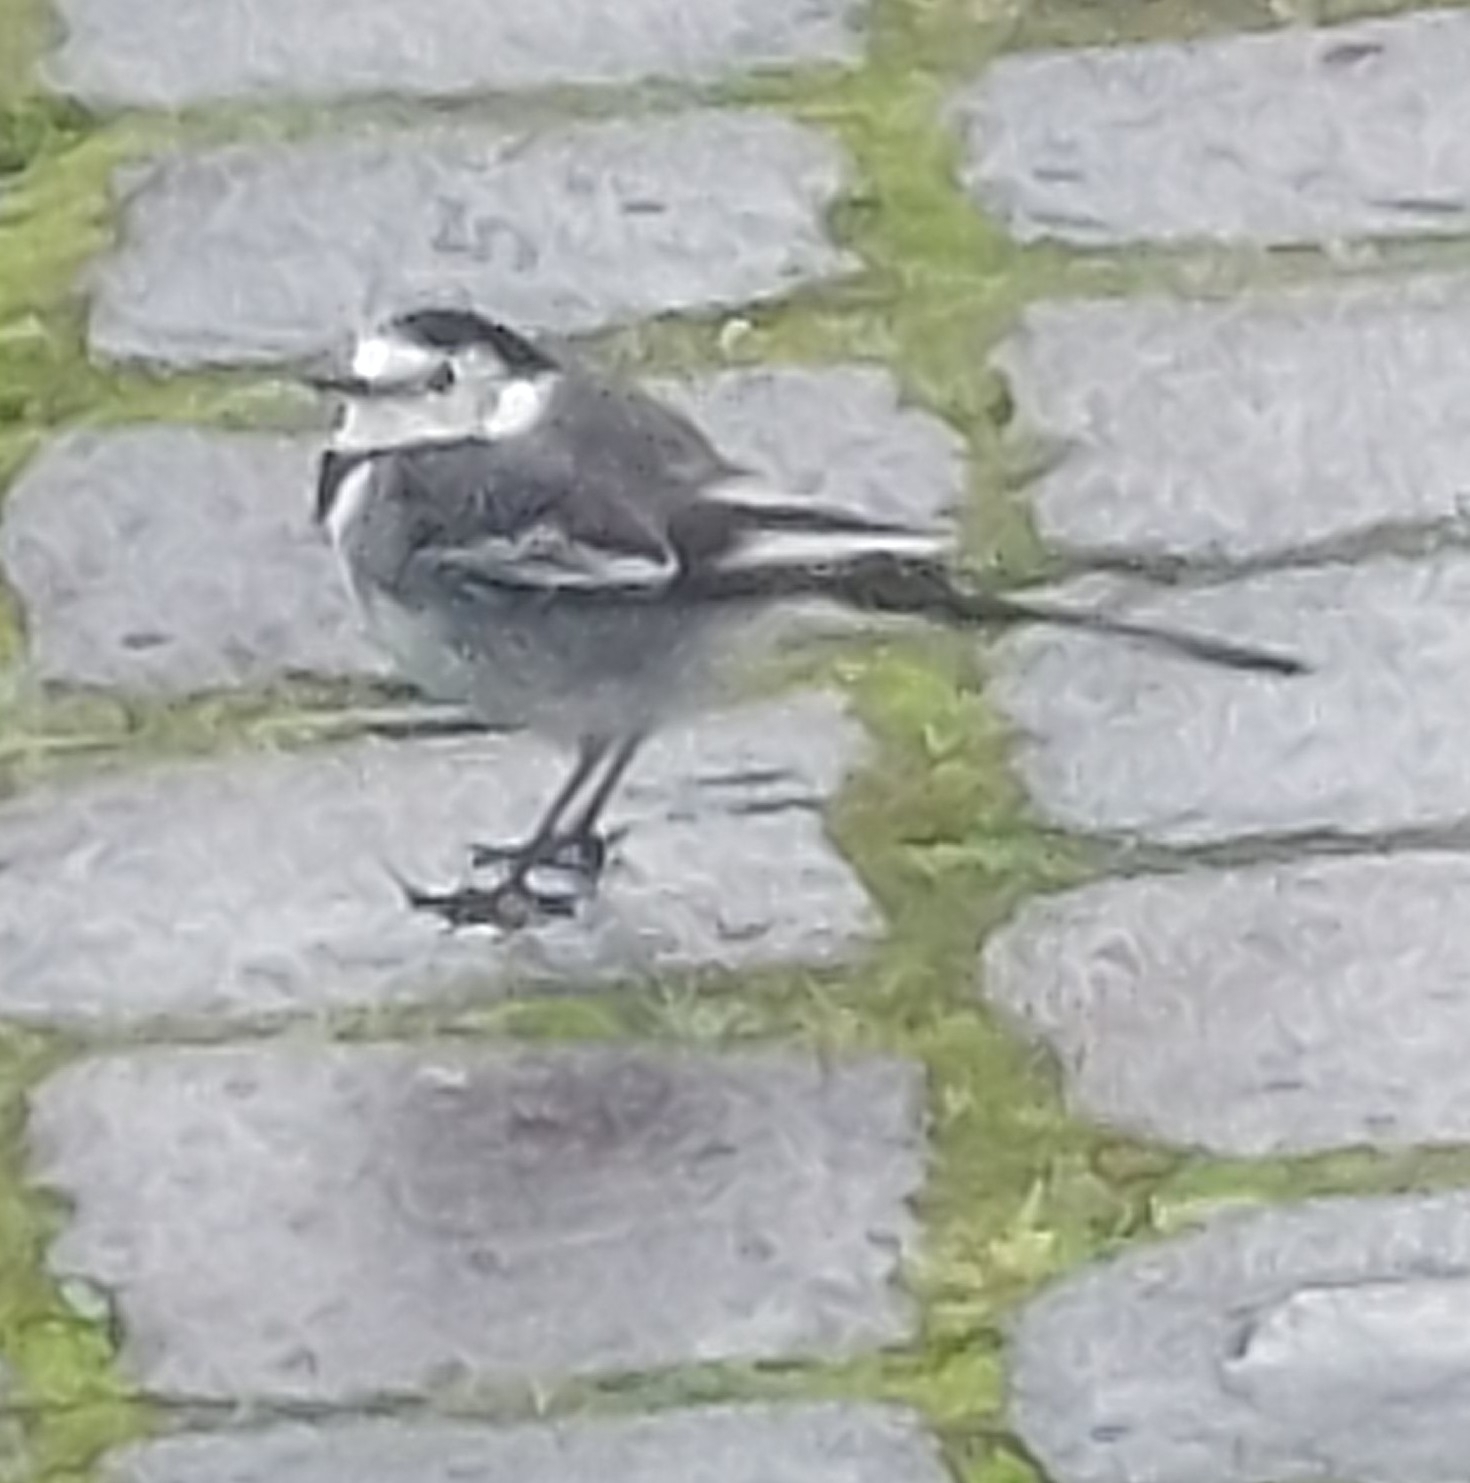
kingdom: Animalia
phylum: Chordata
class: Aves
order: Passeriformes
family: Motacillidae
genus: Motacilla
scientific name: Motacilla alba
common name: White wagtail
